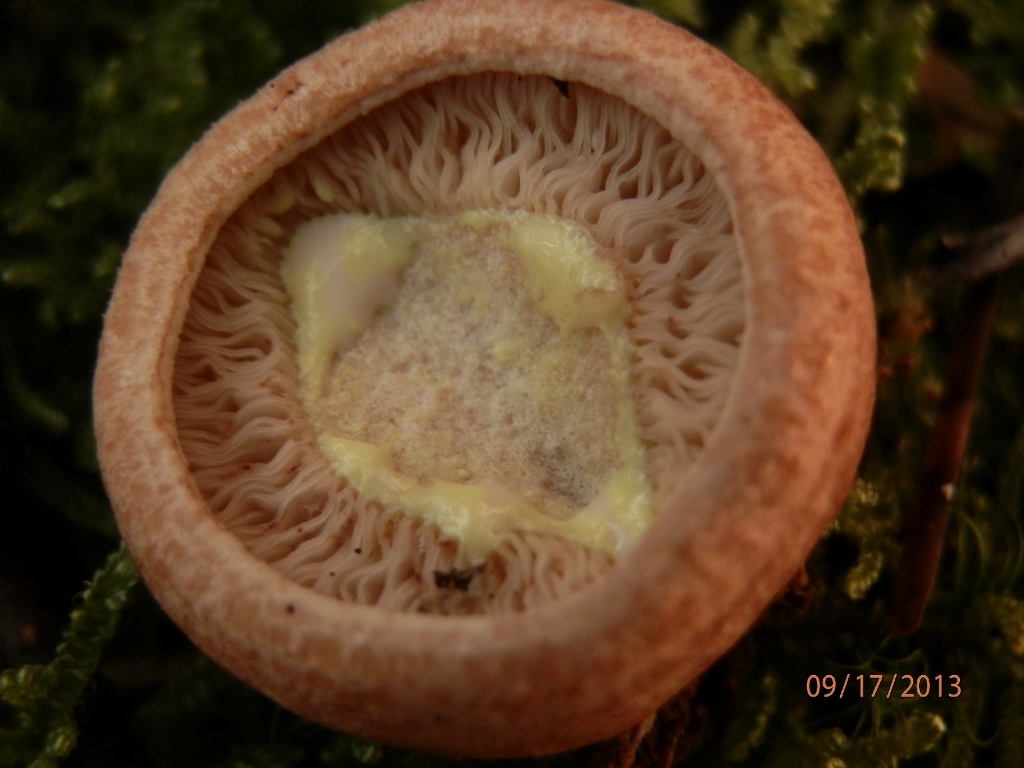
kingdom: Fungi
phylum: Basidiomycota
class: Agaricomycetes
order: Russulales
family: Russulaceae
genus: Lactarius
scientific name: Lactarius vinaceorufescens
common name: Yellow-latex milkcap
